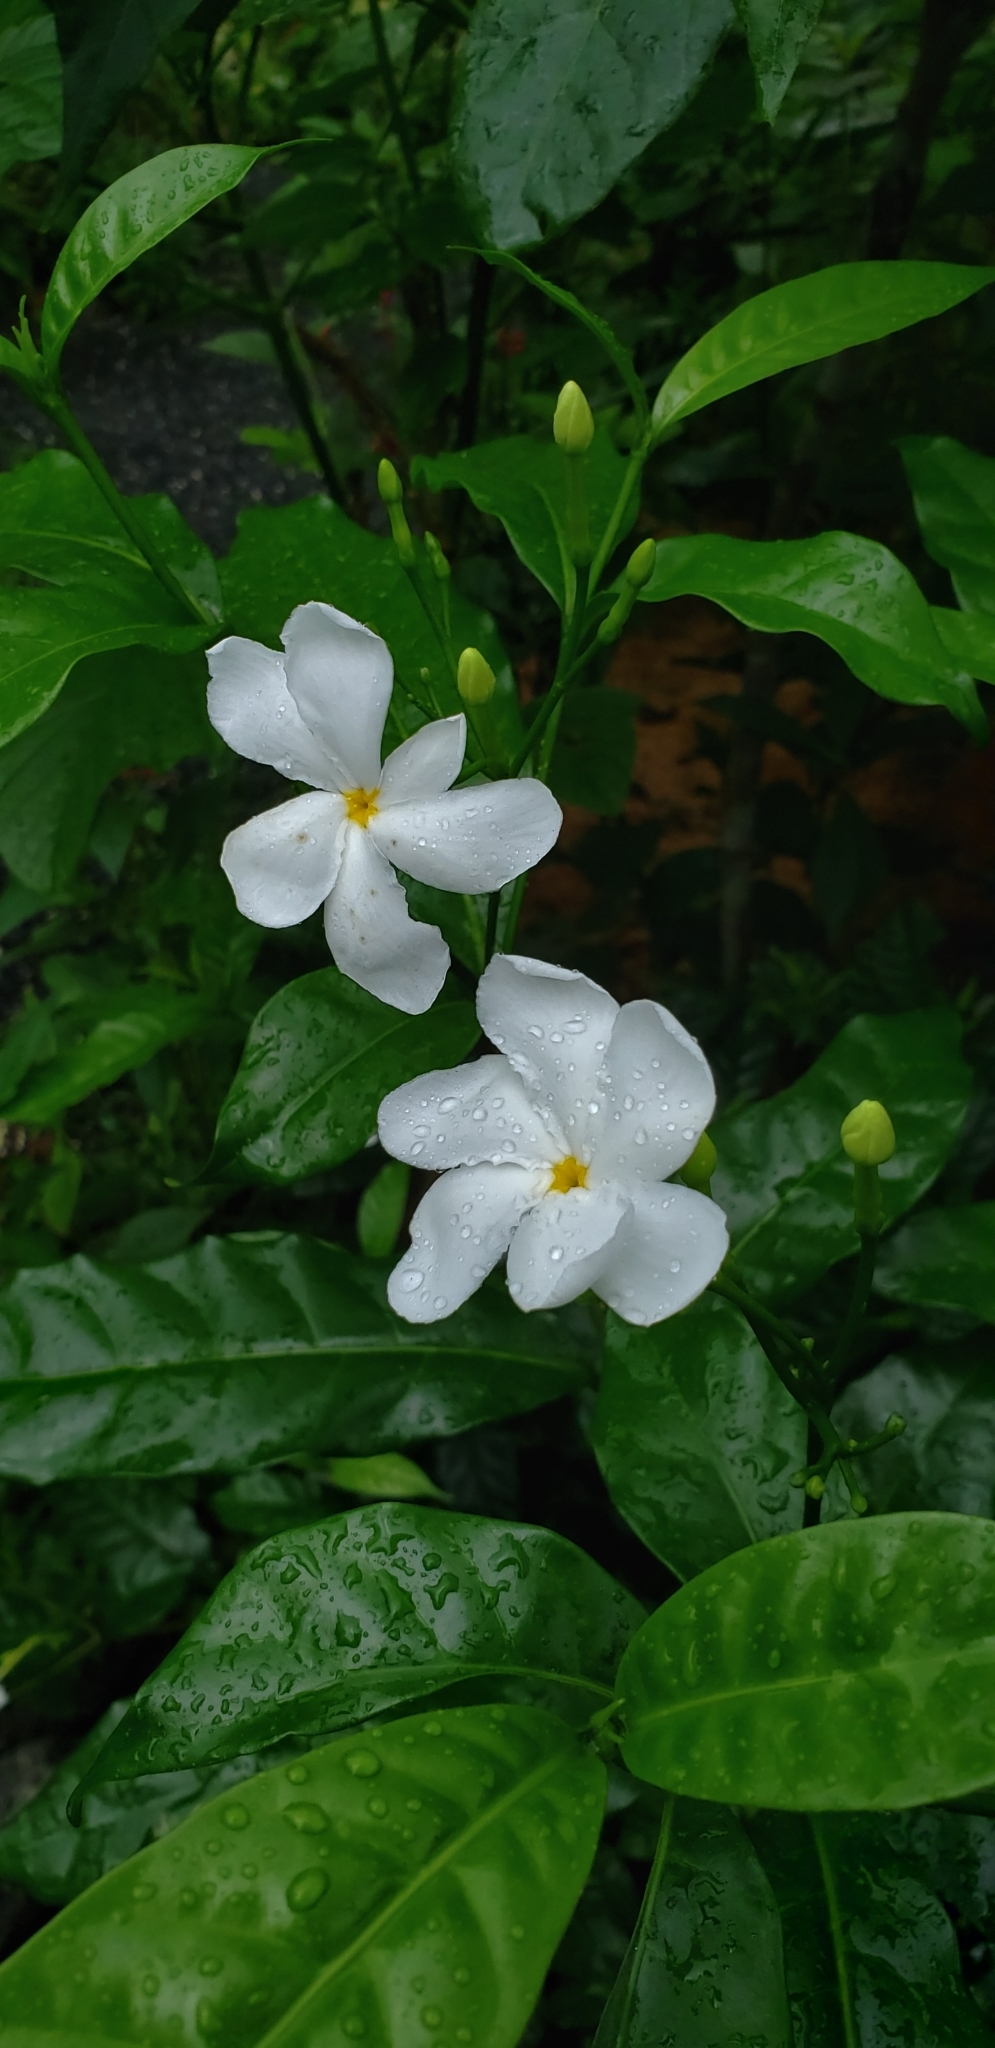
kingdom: Plantae
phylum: Tracheophyta
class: Magnoliopsida
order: Gentianales
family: Apocynaceae
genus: Tabernaemontana
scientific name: Tabernaemontana divaricata
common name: Pinwheelflower
